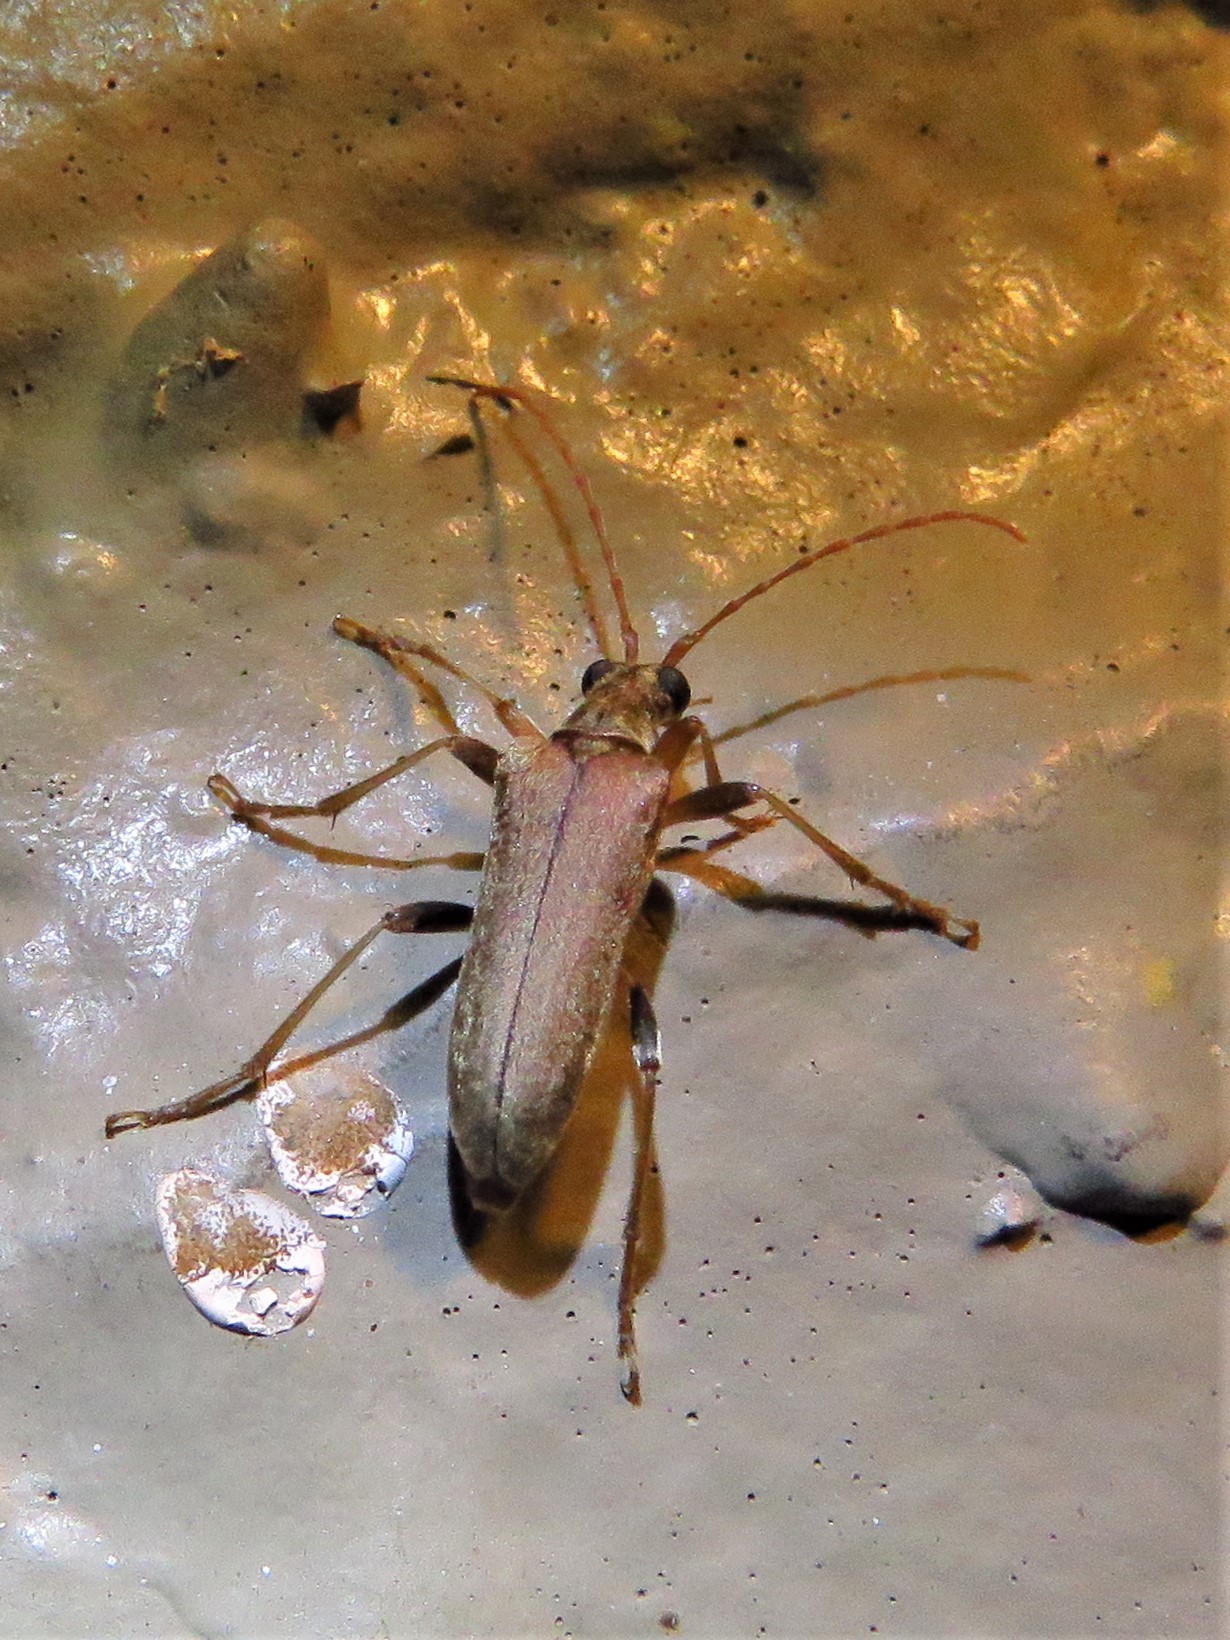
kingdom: Animalia
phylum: Arthropoda
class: Insecta
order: Coleoptera
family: Cerambycidae
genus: Stenocorus
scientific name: Stenocorus cinnamopterus
